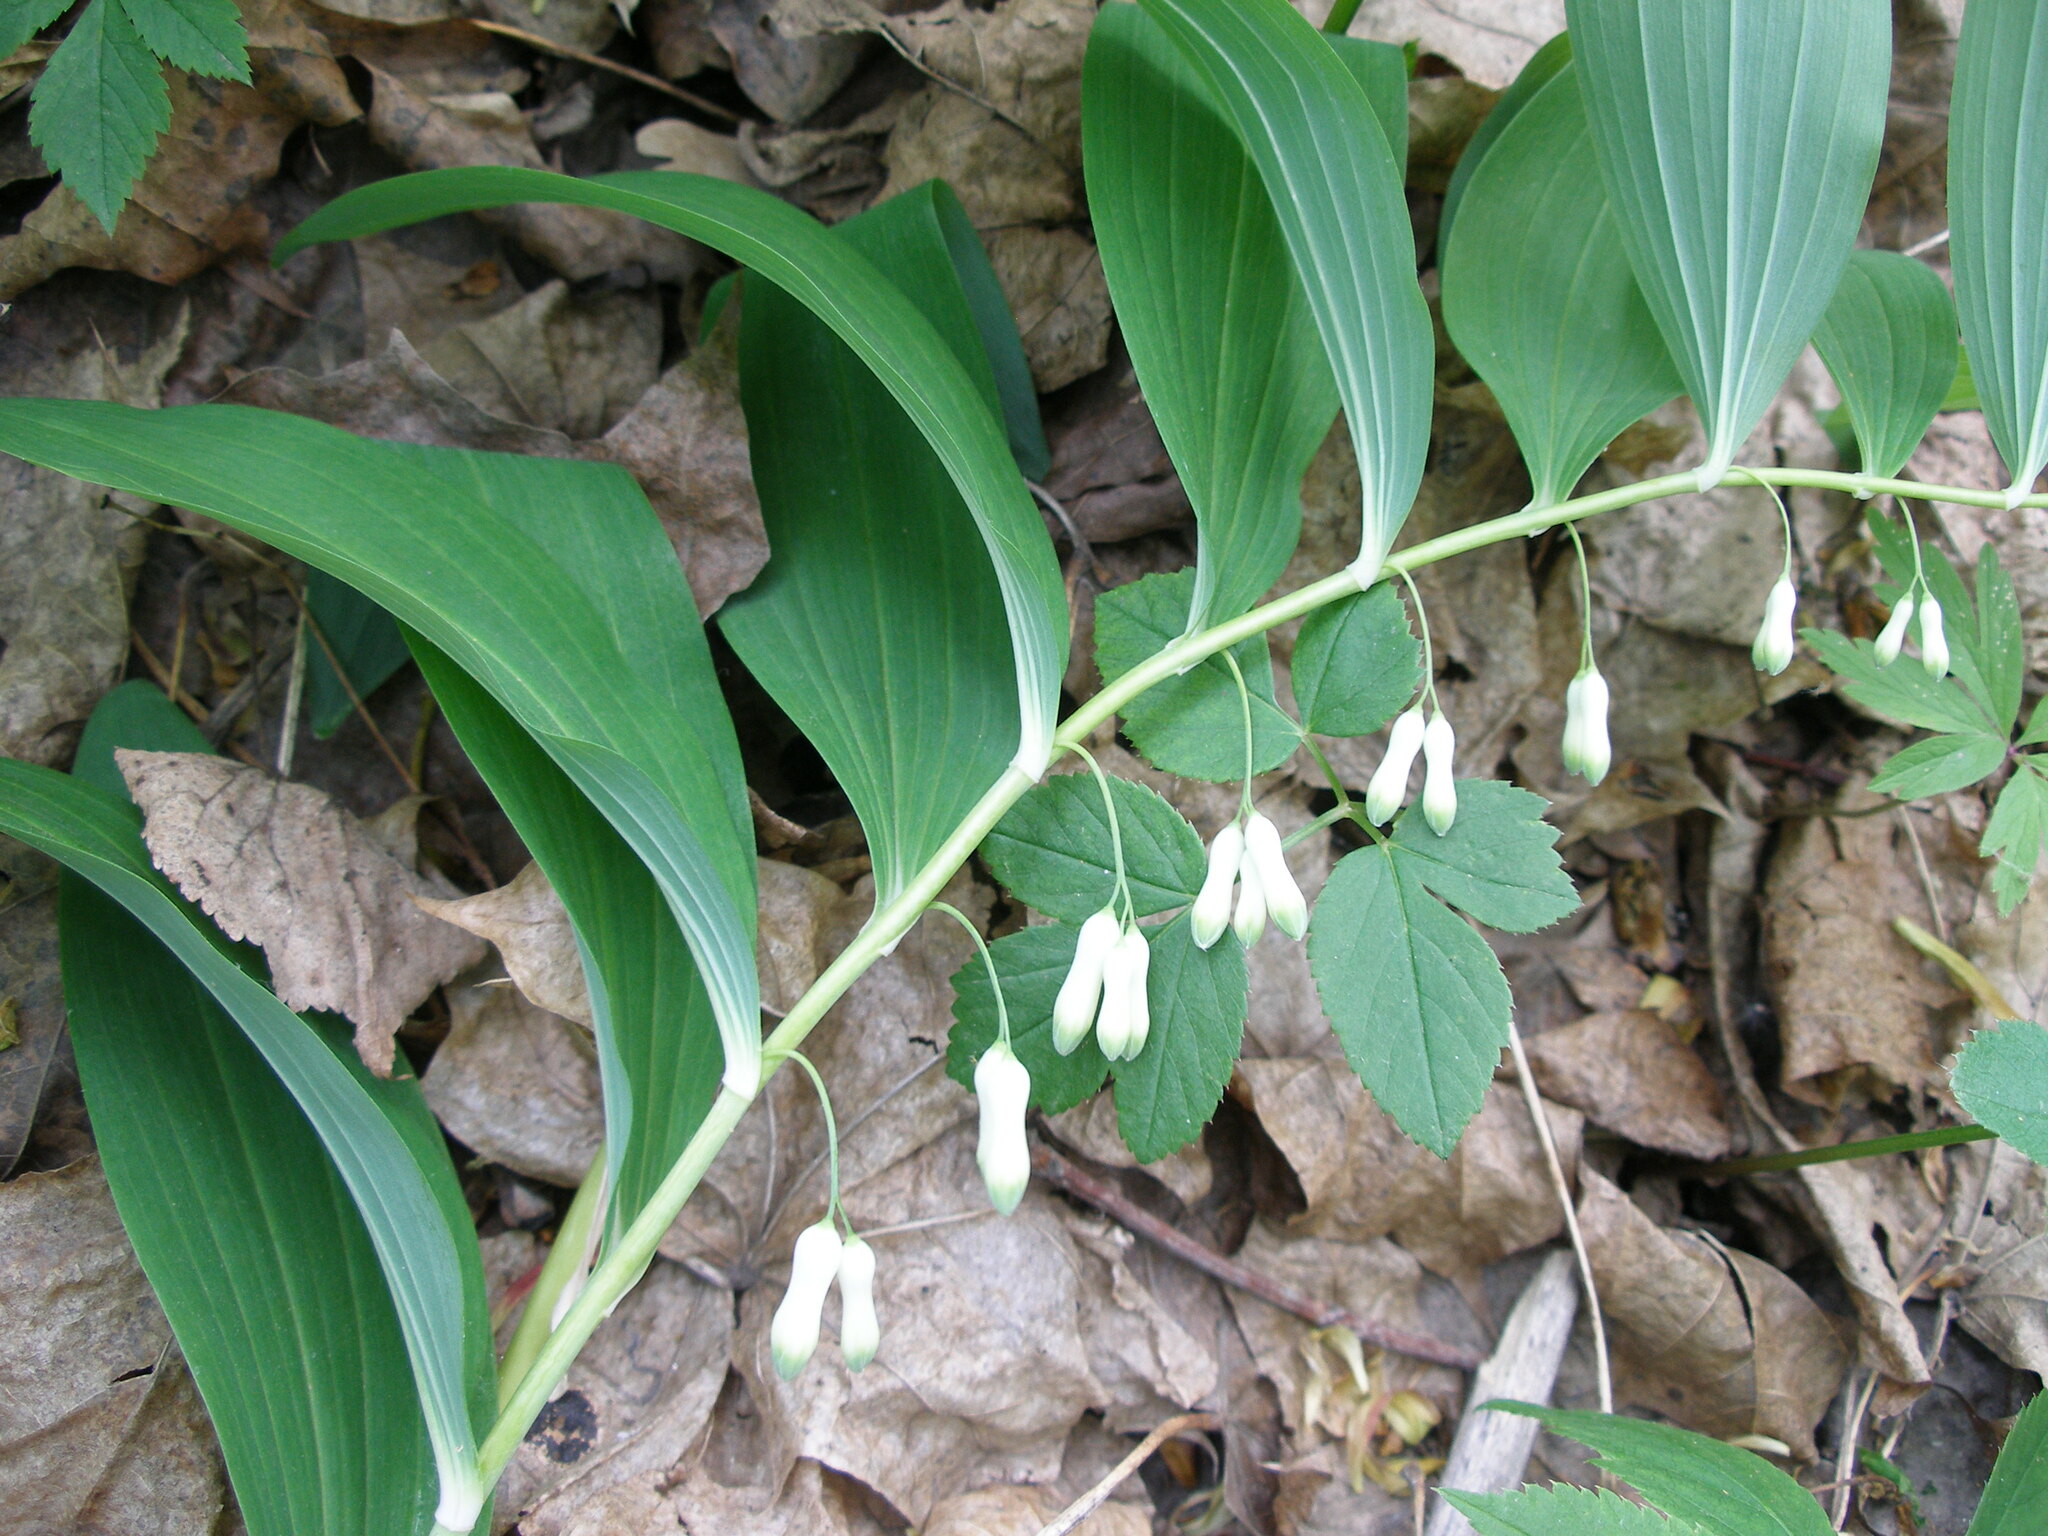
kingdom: Plantae
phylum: Tracheophyta
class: Liliopsida
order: Asparagales
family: Asparagaceae
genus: Polygonatum
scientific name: Polygonatum multiflorum
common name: Solomon's-seal
